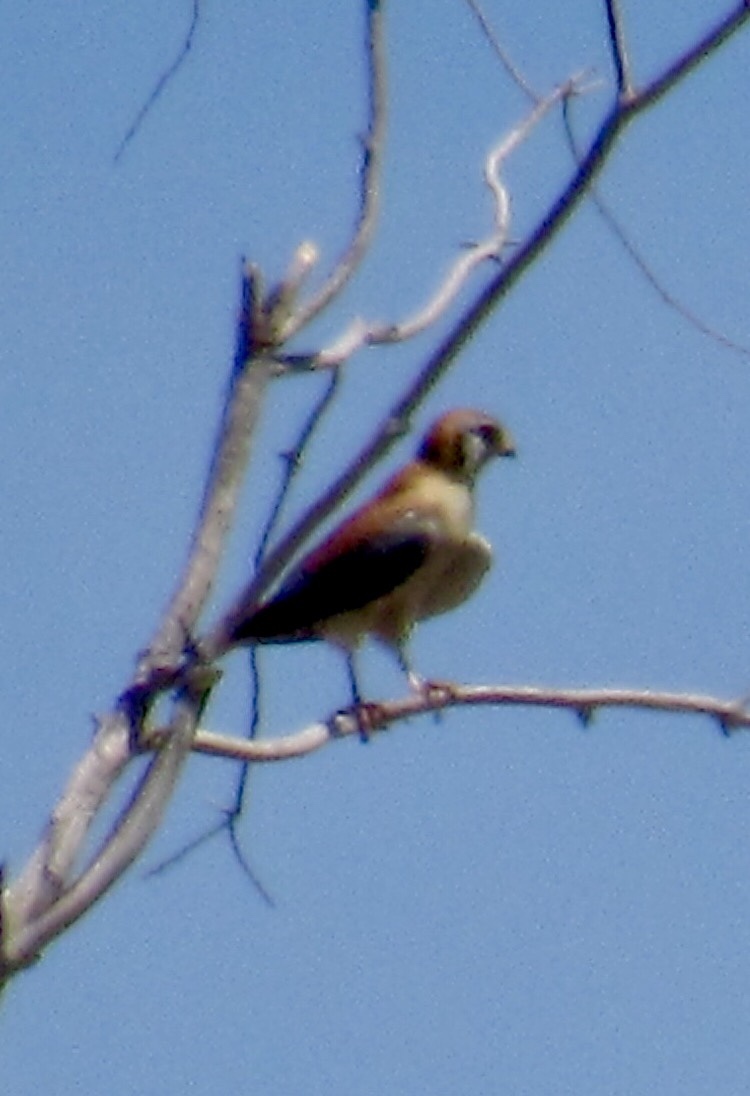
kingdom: Animalia
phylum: Chordata
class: Aves
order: Falconiformes
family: Falconidae
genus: Falco
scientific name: Falco sparverius
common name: American kestrel
